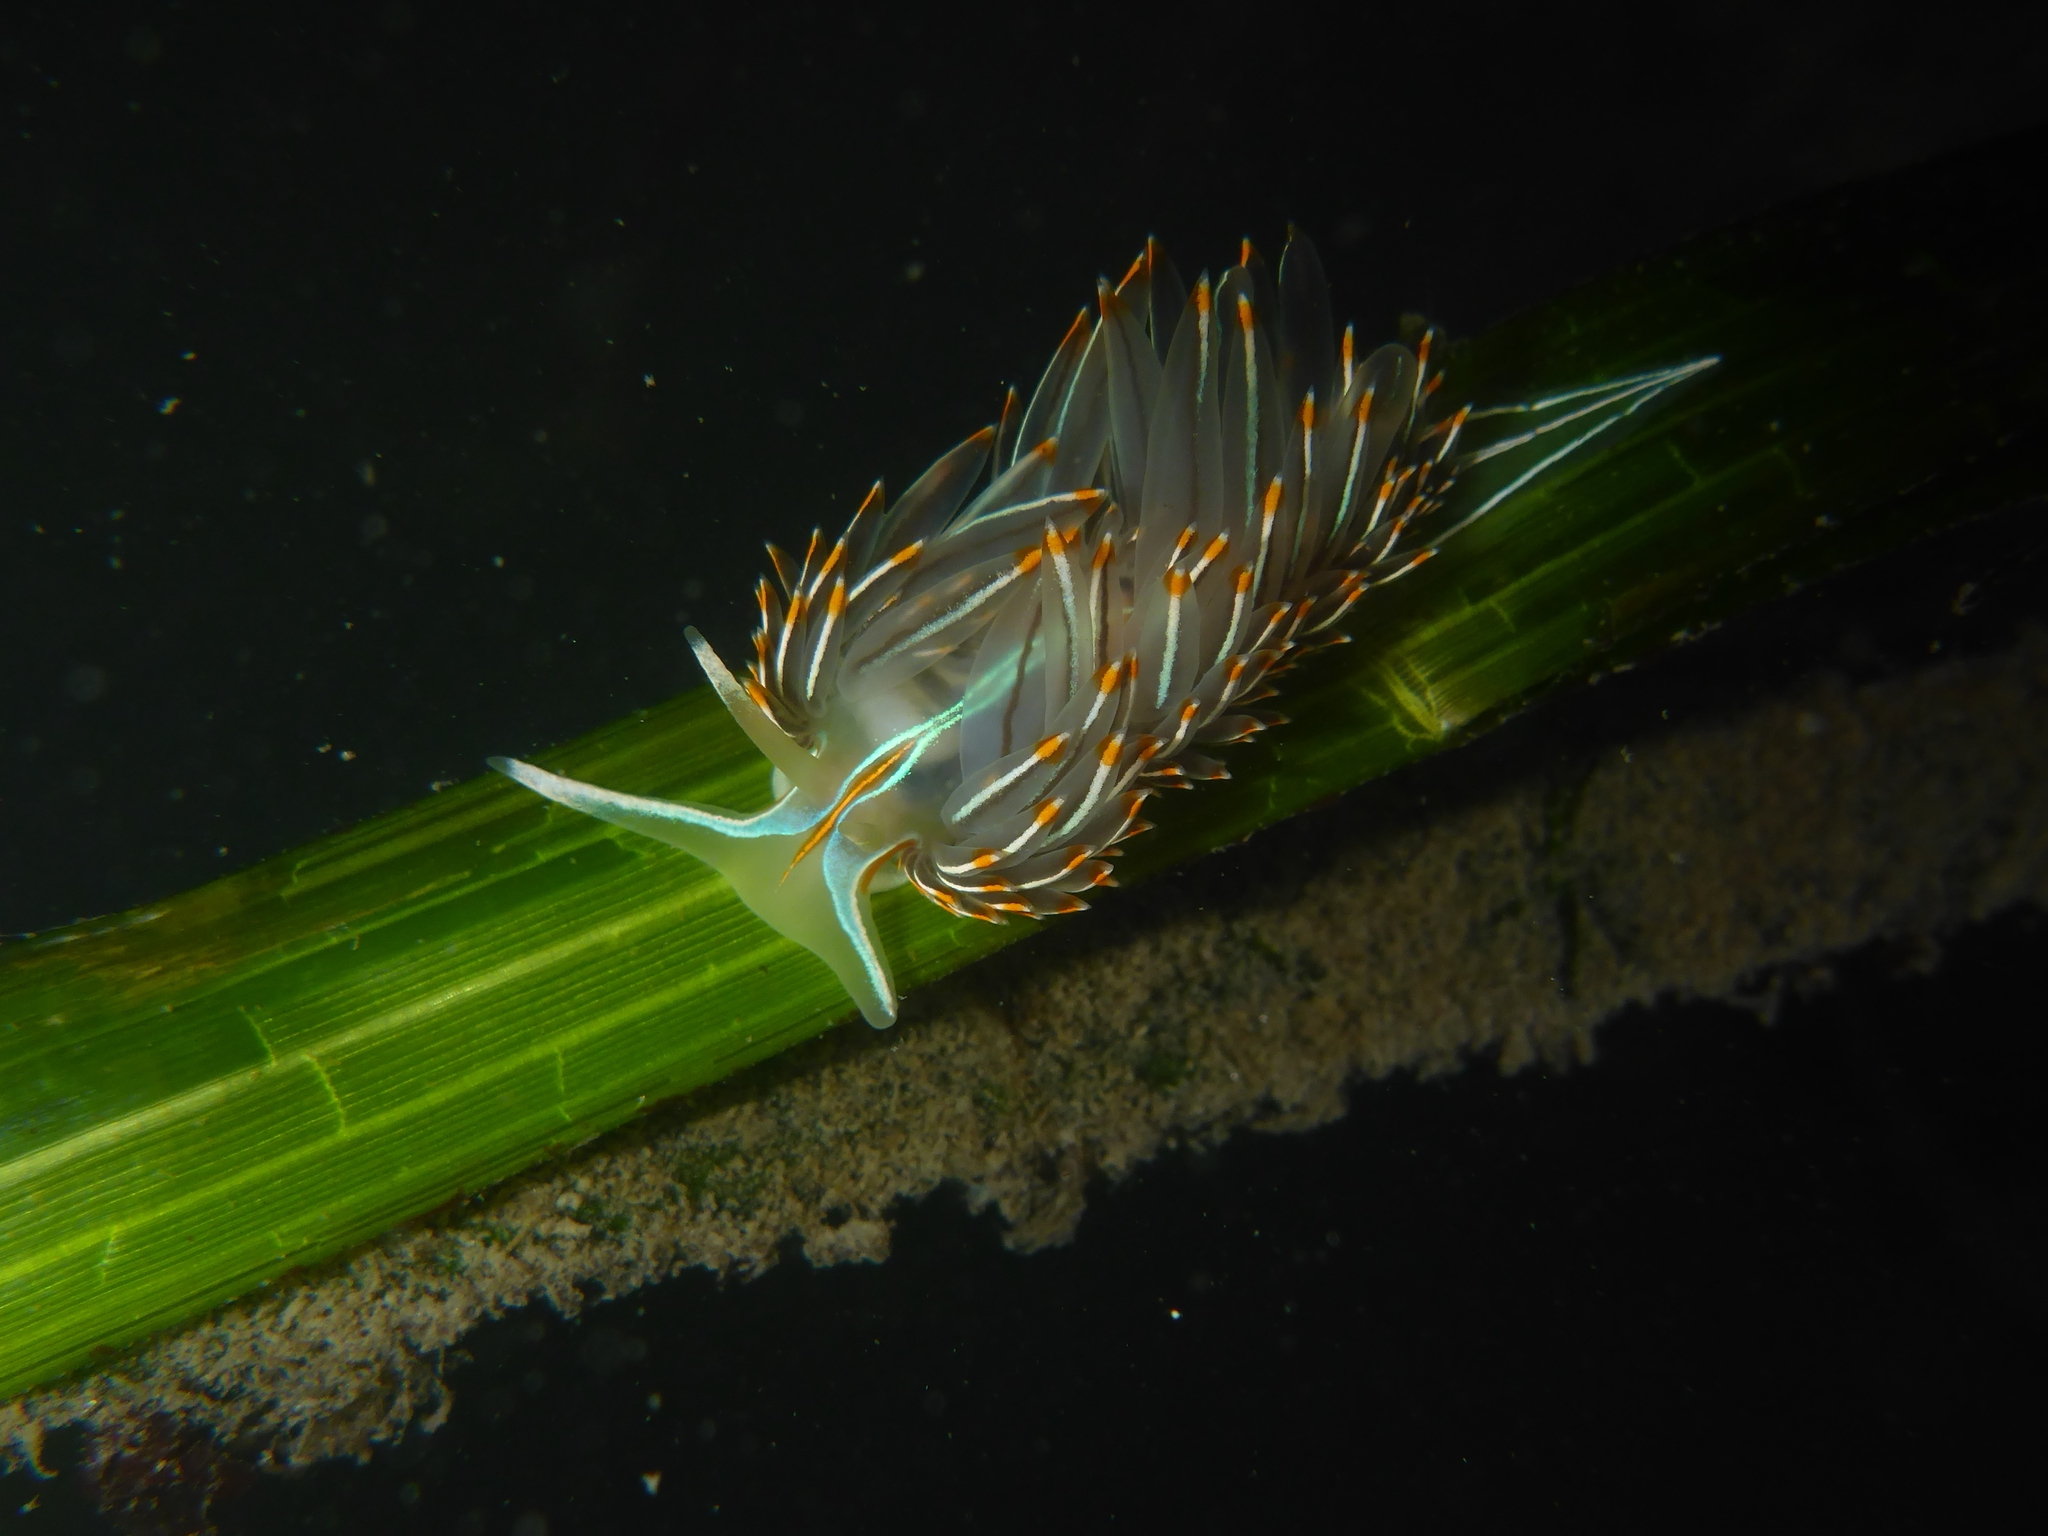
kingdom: Animalia
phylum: Mollusca
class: Gastropoda
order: Nudibranchia
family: Myrrhinidae
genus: Hermissenda
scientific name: Hermissenda crassicornis
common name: Hermissenda
